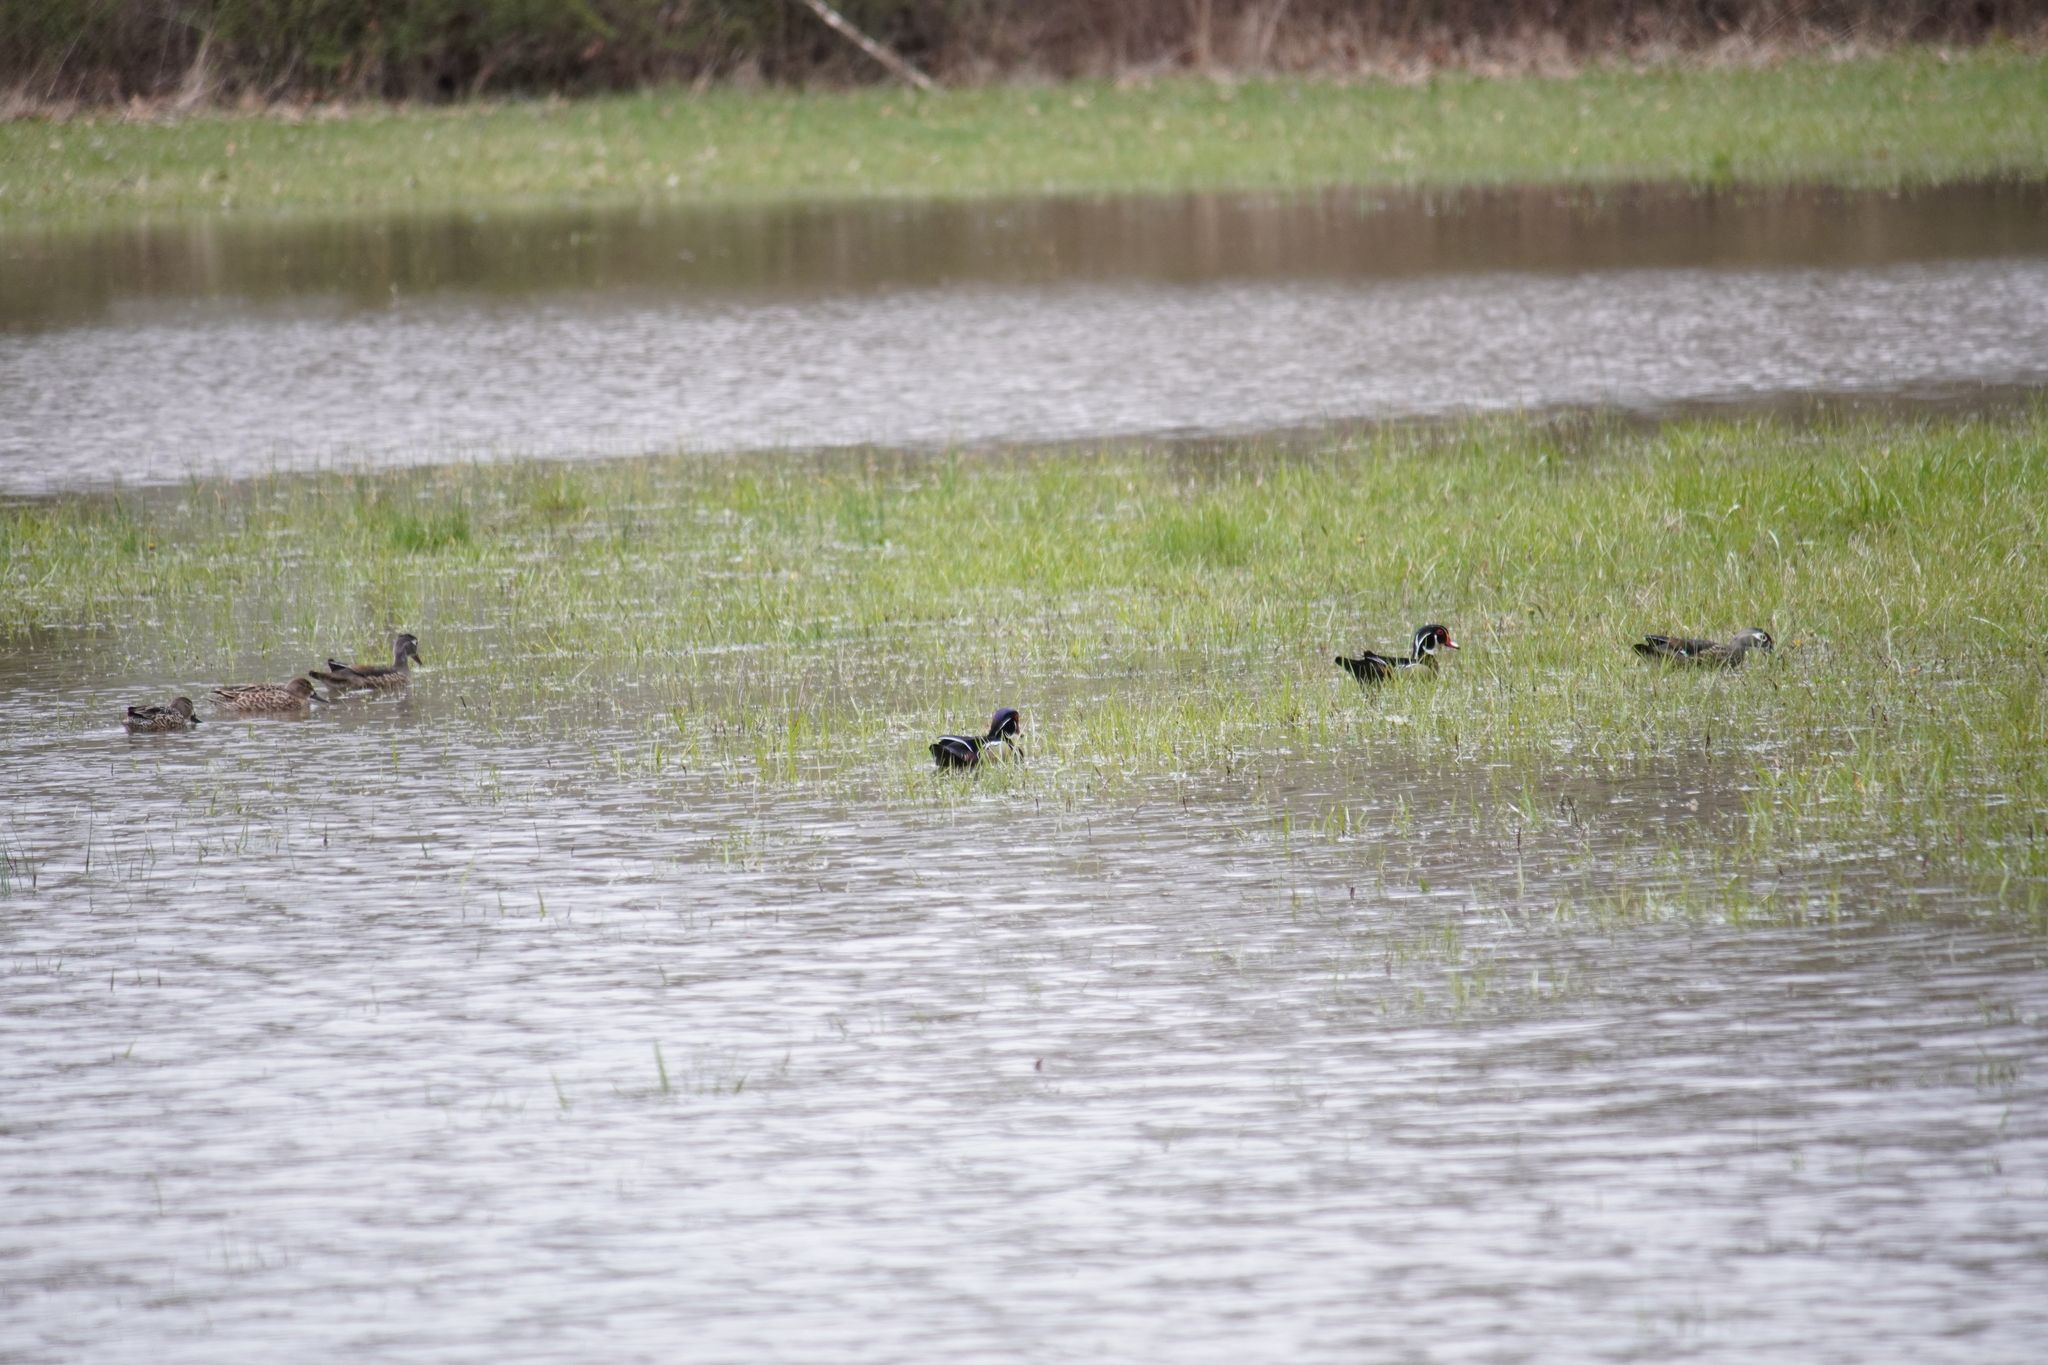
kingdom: Animalia
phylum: Chordata
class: Aves
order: Anseriformes
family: Anatidae
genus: Aix
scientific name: Aix sponsa
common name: Wood duck
